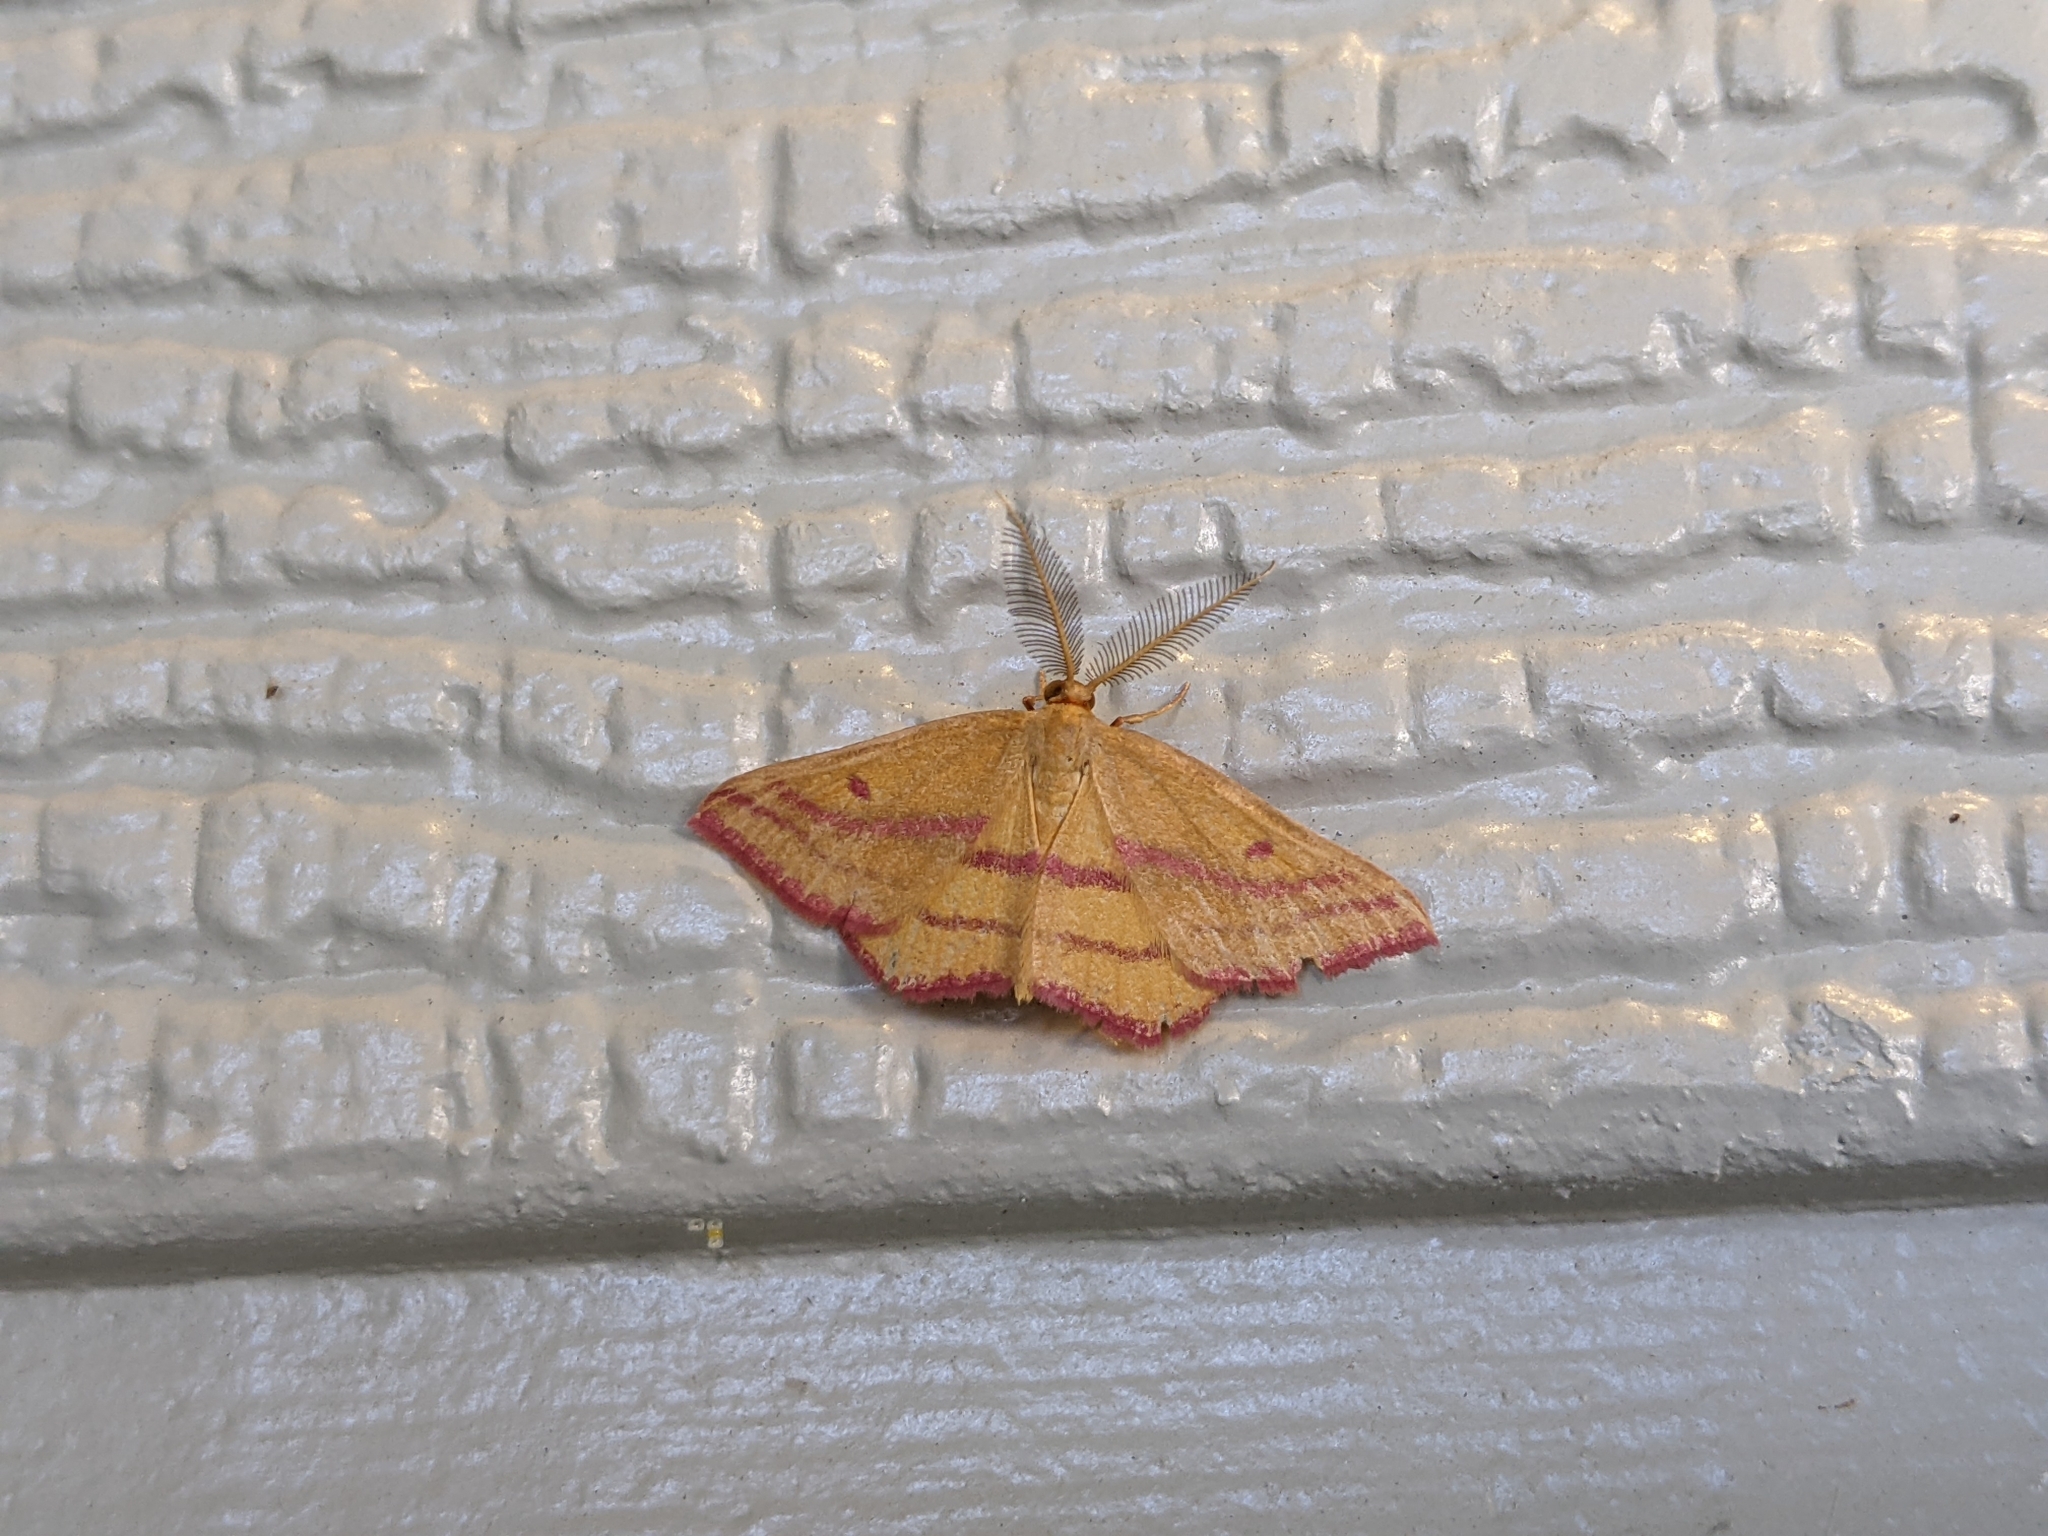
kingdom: Animalia
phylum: Arthropoda
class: Insecta
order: Lepidoptera
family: Geometridae
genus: Haematopis
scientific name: Haematopis grataria
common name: Chickweed geometer
